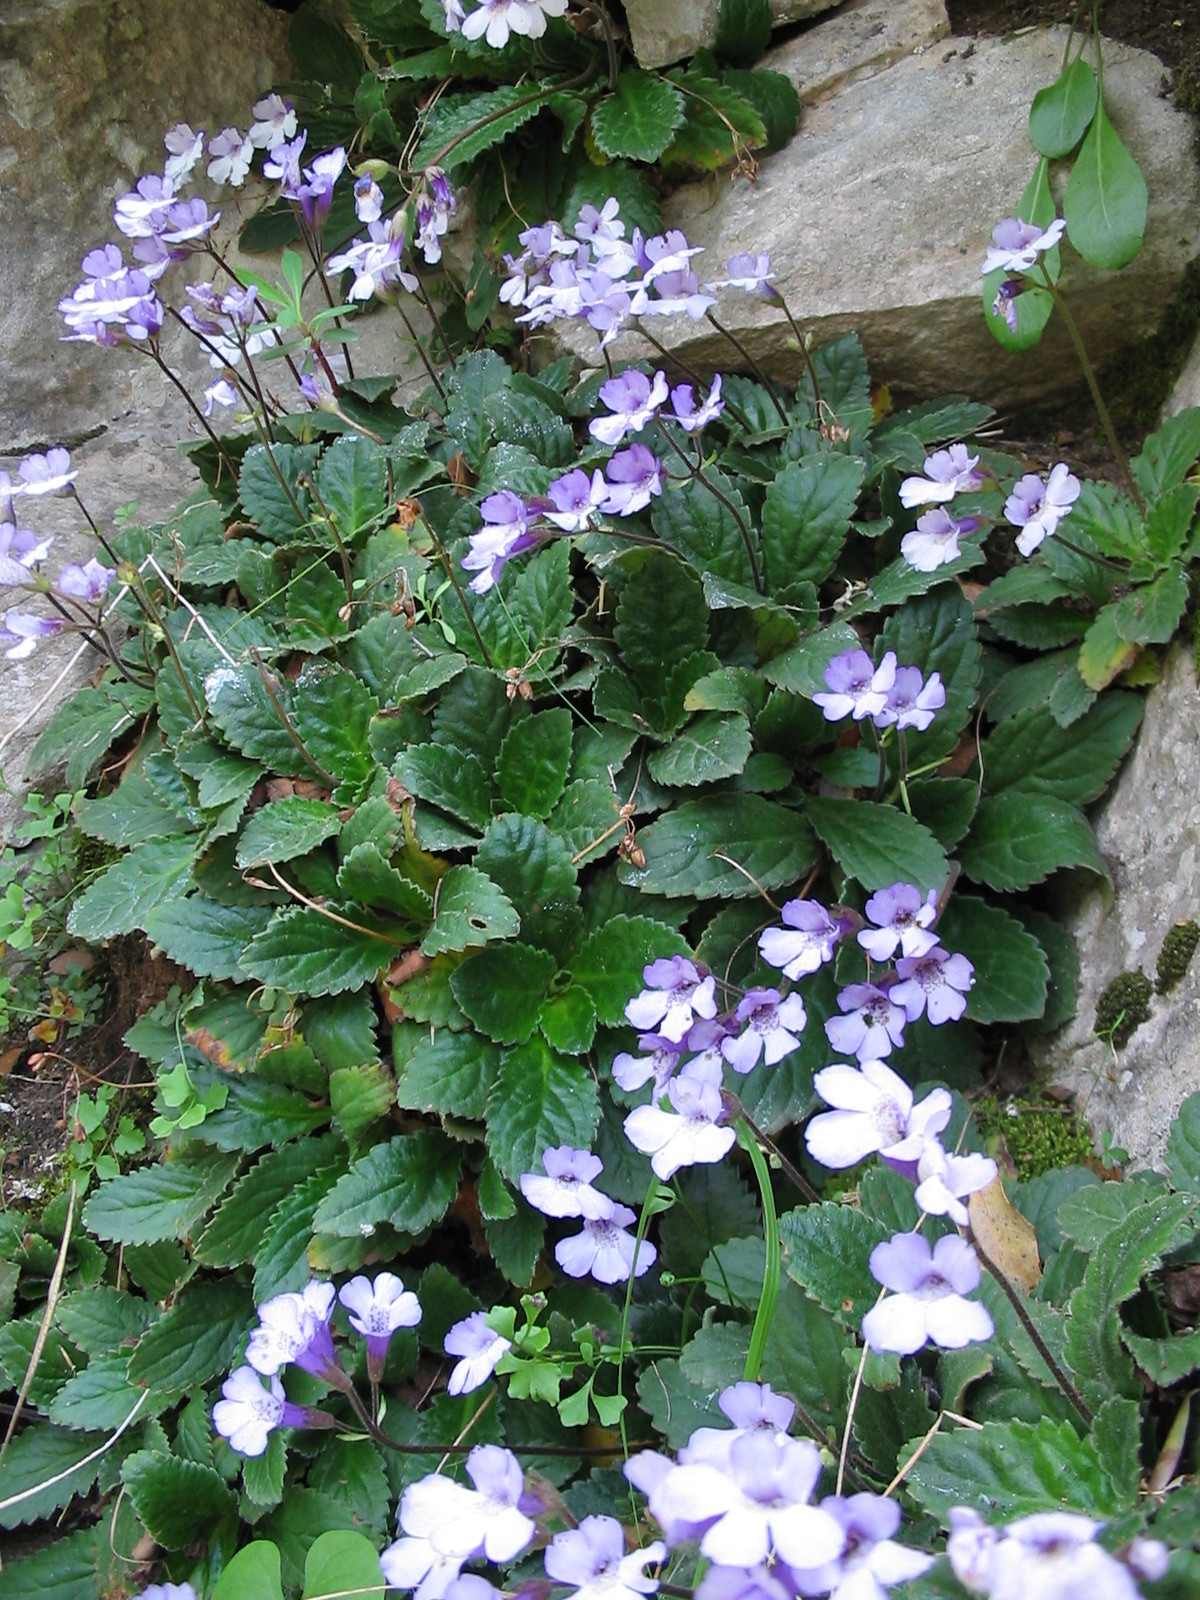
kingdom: Plantae
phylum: Tracheophyta
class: Magnoliopsida
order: Lamiales
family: Gesneriaceae
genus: Haberlea
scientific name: Haberlea rhodopensis
